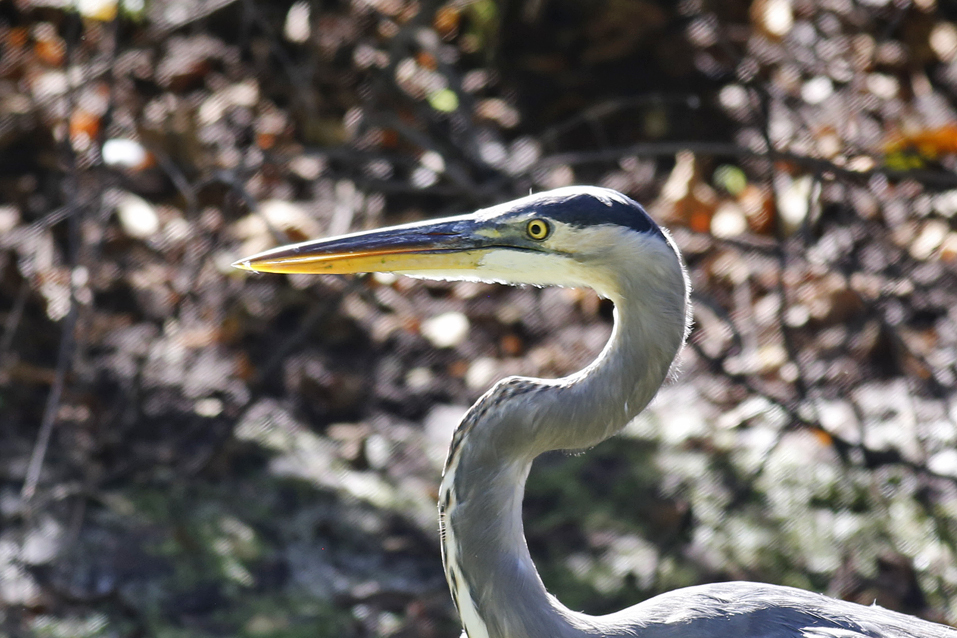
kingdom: Animalia
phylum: Chordata
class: Aves
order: Pelecaniformes
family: Ardeidae
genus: Ardea
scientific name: Ardea herodias
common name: Great blue heron
